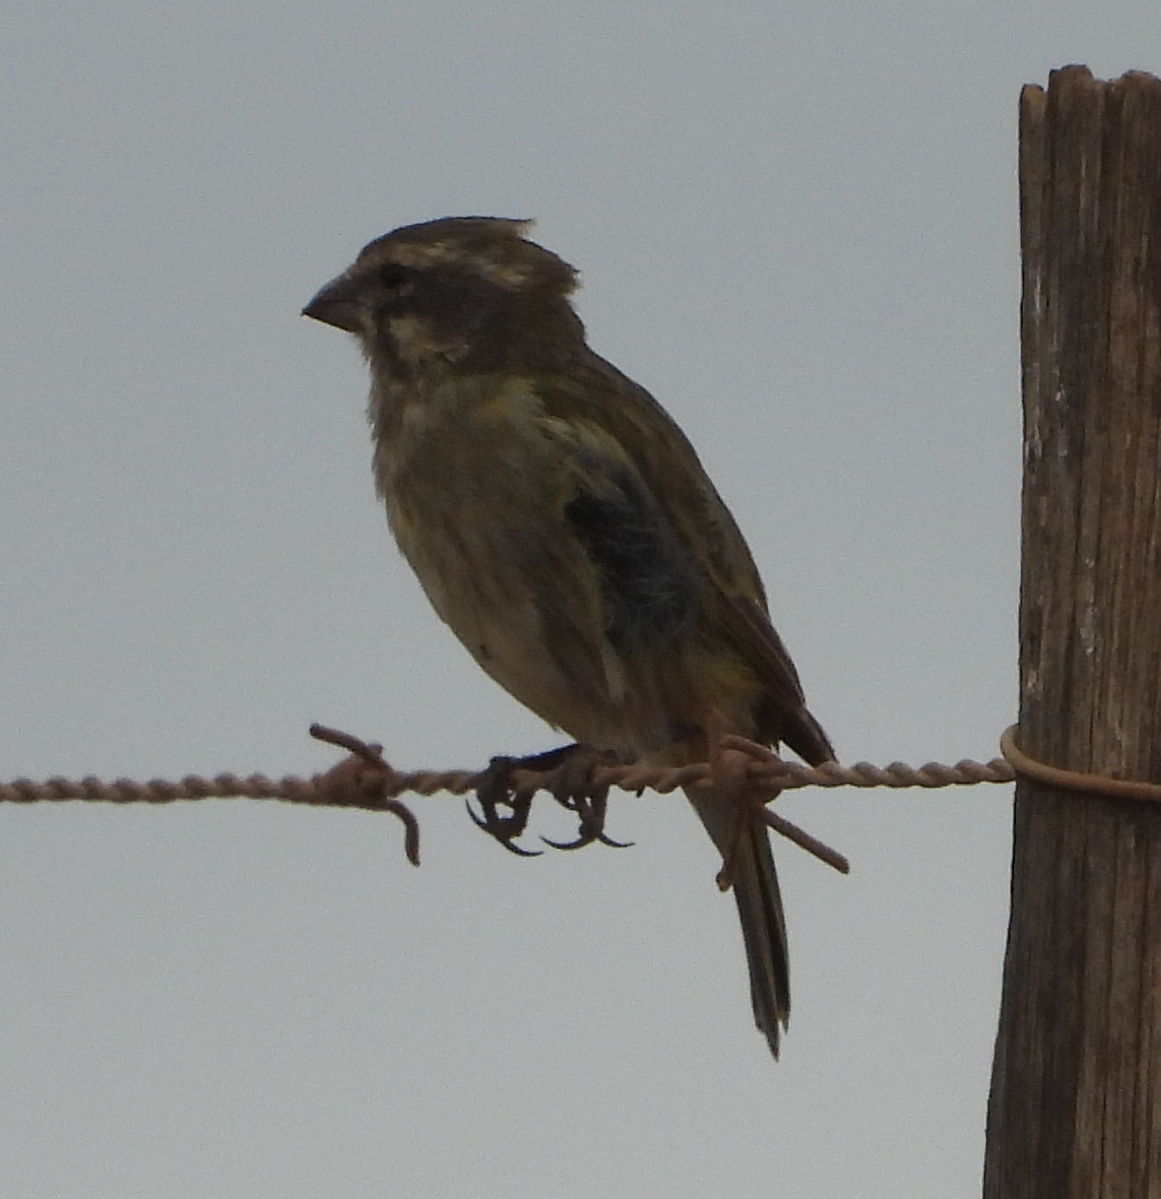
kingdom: Animalia
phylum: Chordata
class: Aves
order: Passeriformes
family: Fringillidae
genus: Crithagra
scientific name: Crithagra flaviventris
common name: Yellow canary
